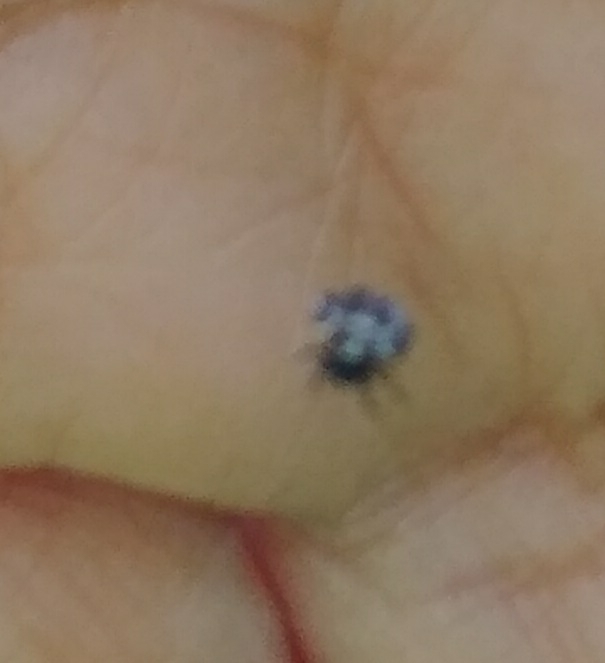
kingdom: Animalia
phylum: Arthropoda
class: Arachnida
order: Araneae
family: Araneidae
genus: Gasteracantha
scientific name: Gasteracantha cancriformis
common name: Orb weavers
